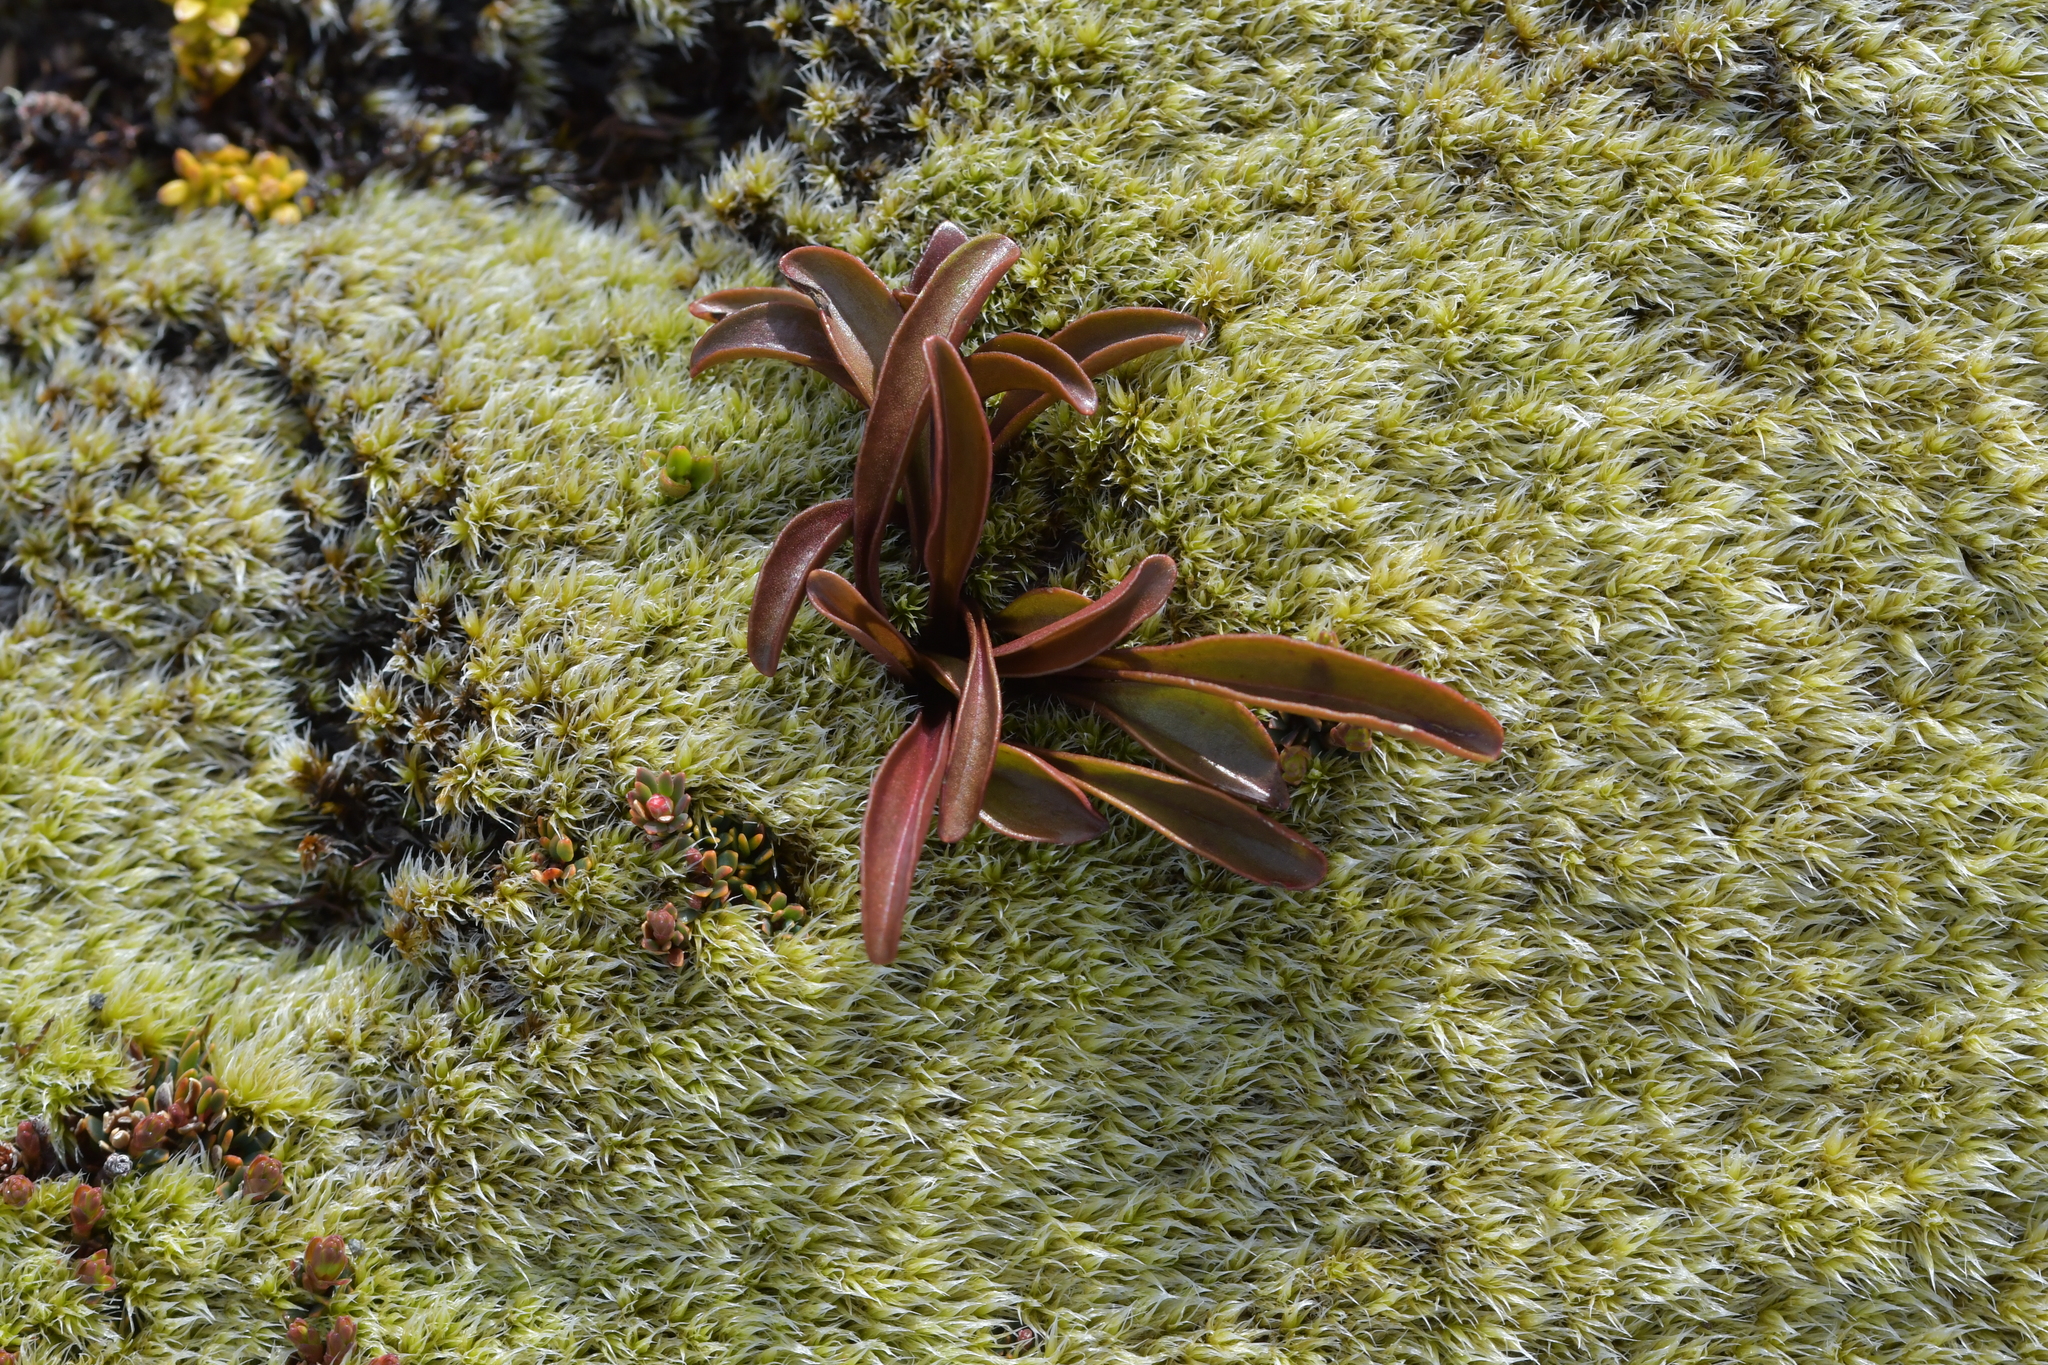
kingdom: Plantae
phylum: Tracheophyta
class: Magnoliopsida
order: Gentianales
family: Gentianaceae
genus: Gentianella
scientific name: Gentianella bellidifolia
